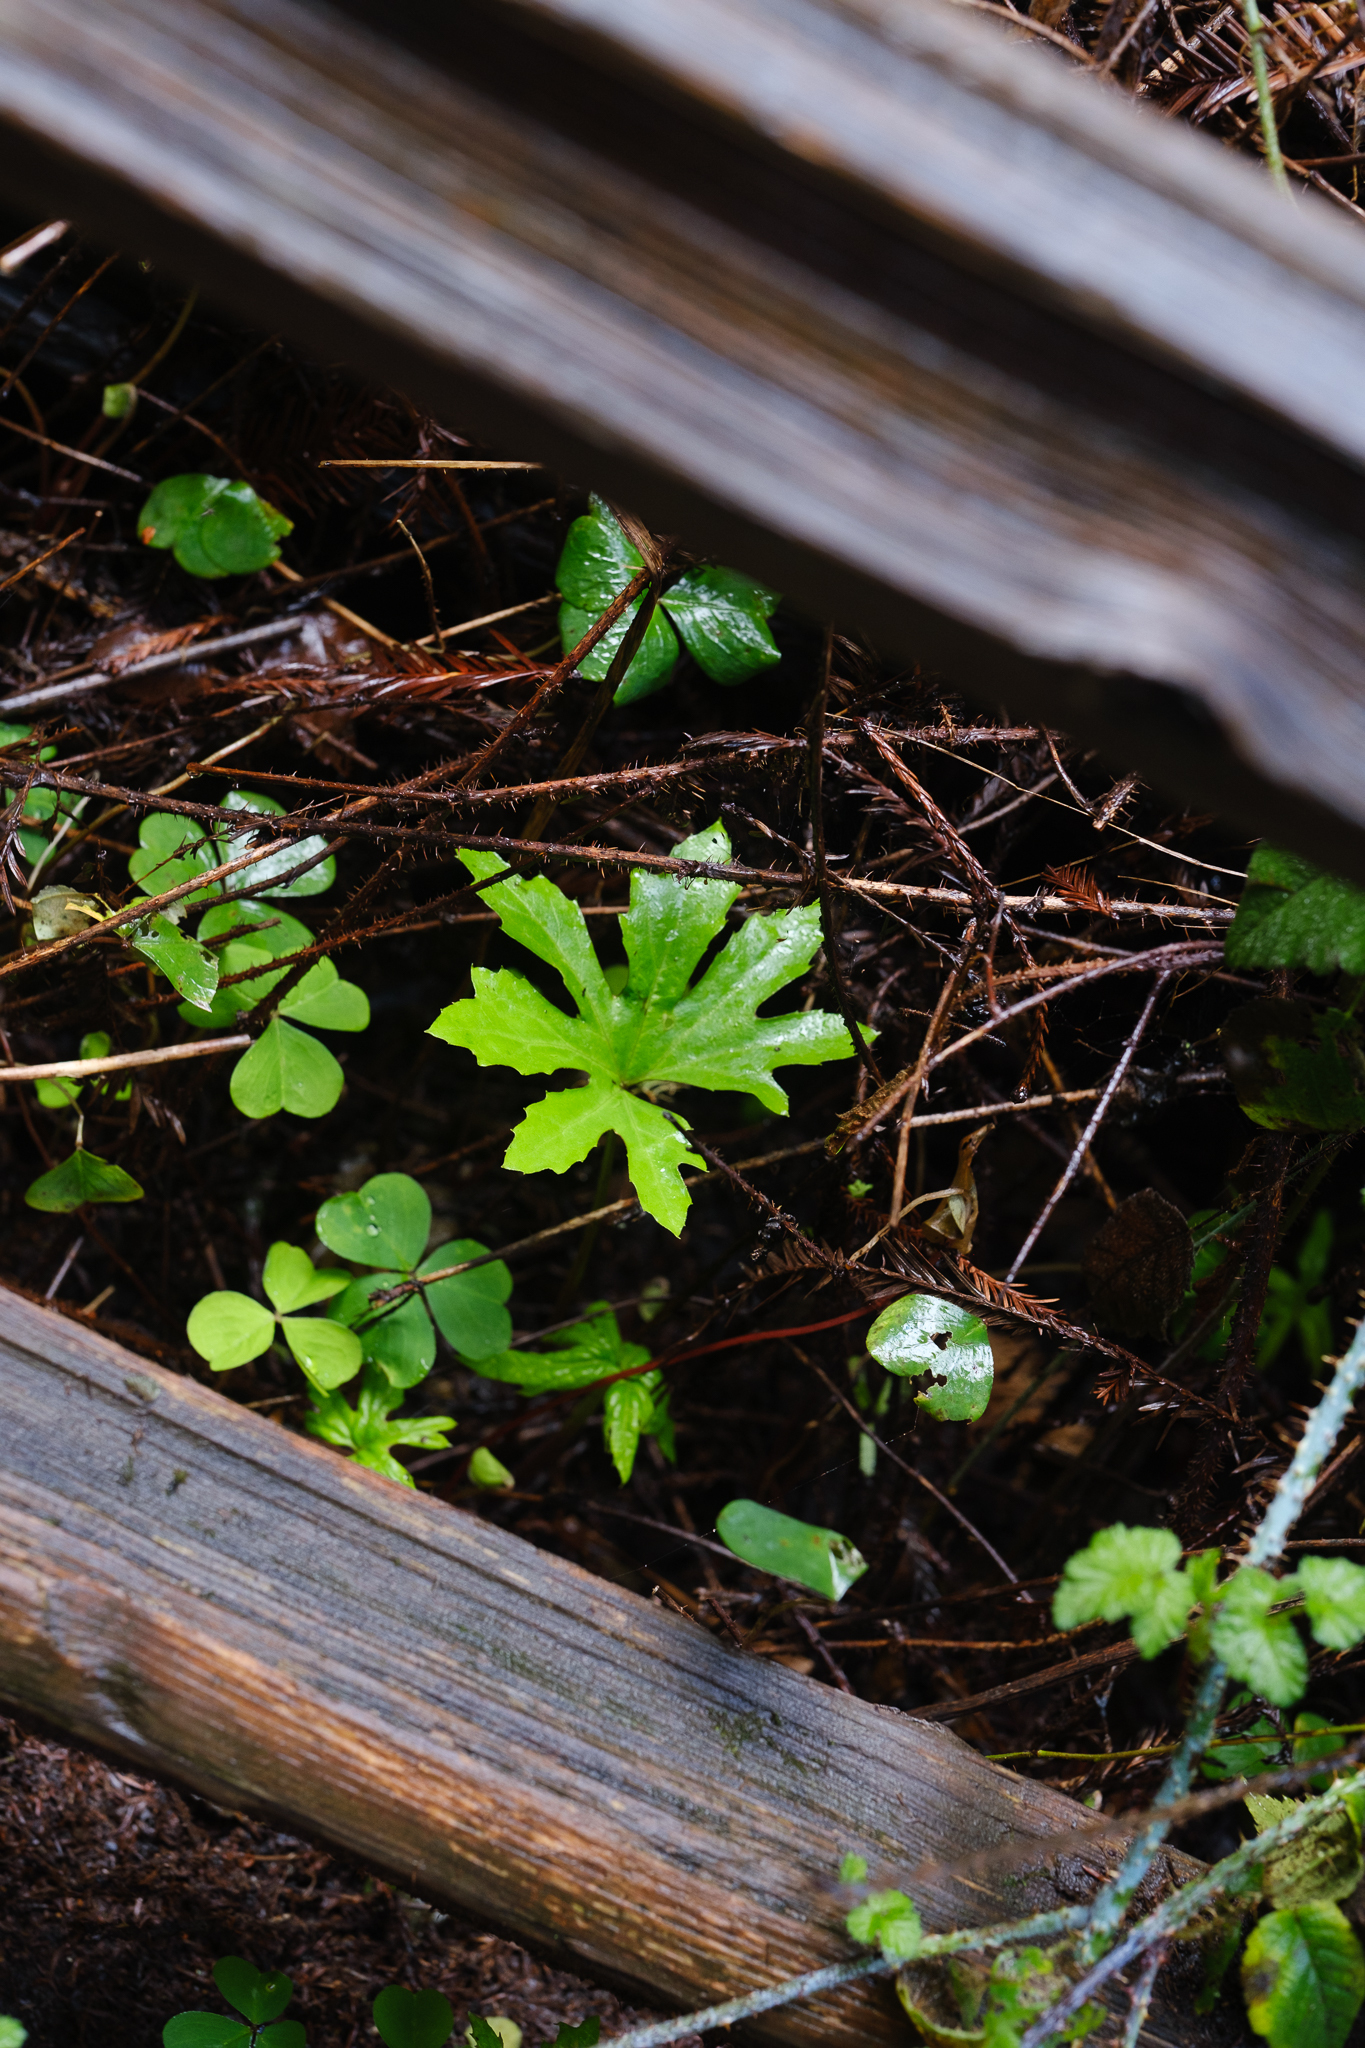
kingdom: Plantae
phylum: Tracheophyta
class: Magnoliopsida
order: Asterales
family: Asteraceae
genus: Petasites
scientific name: Petasites frigidus
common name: Arctic butterbur
